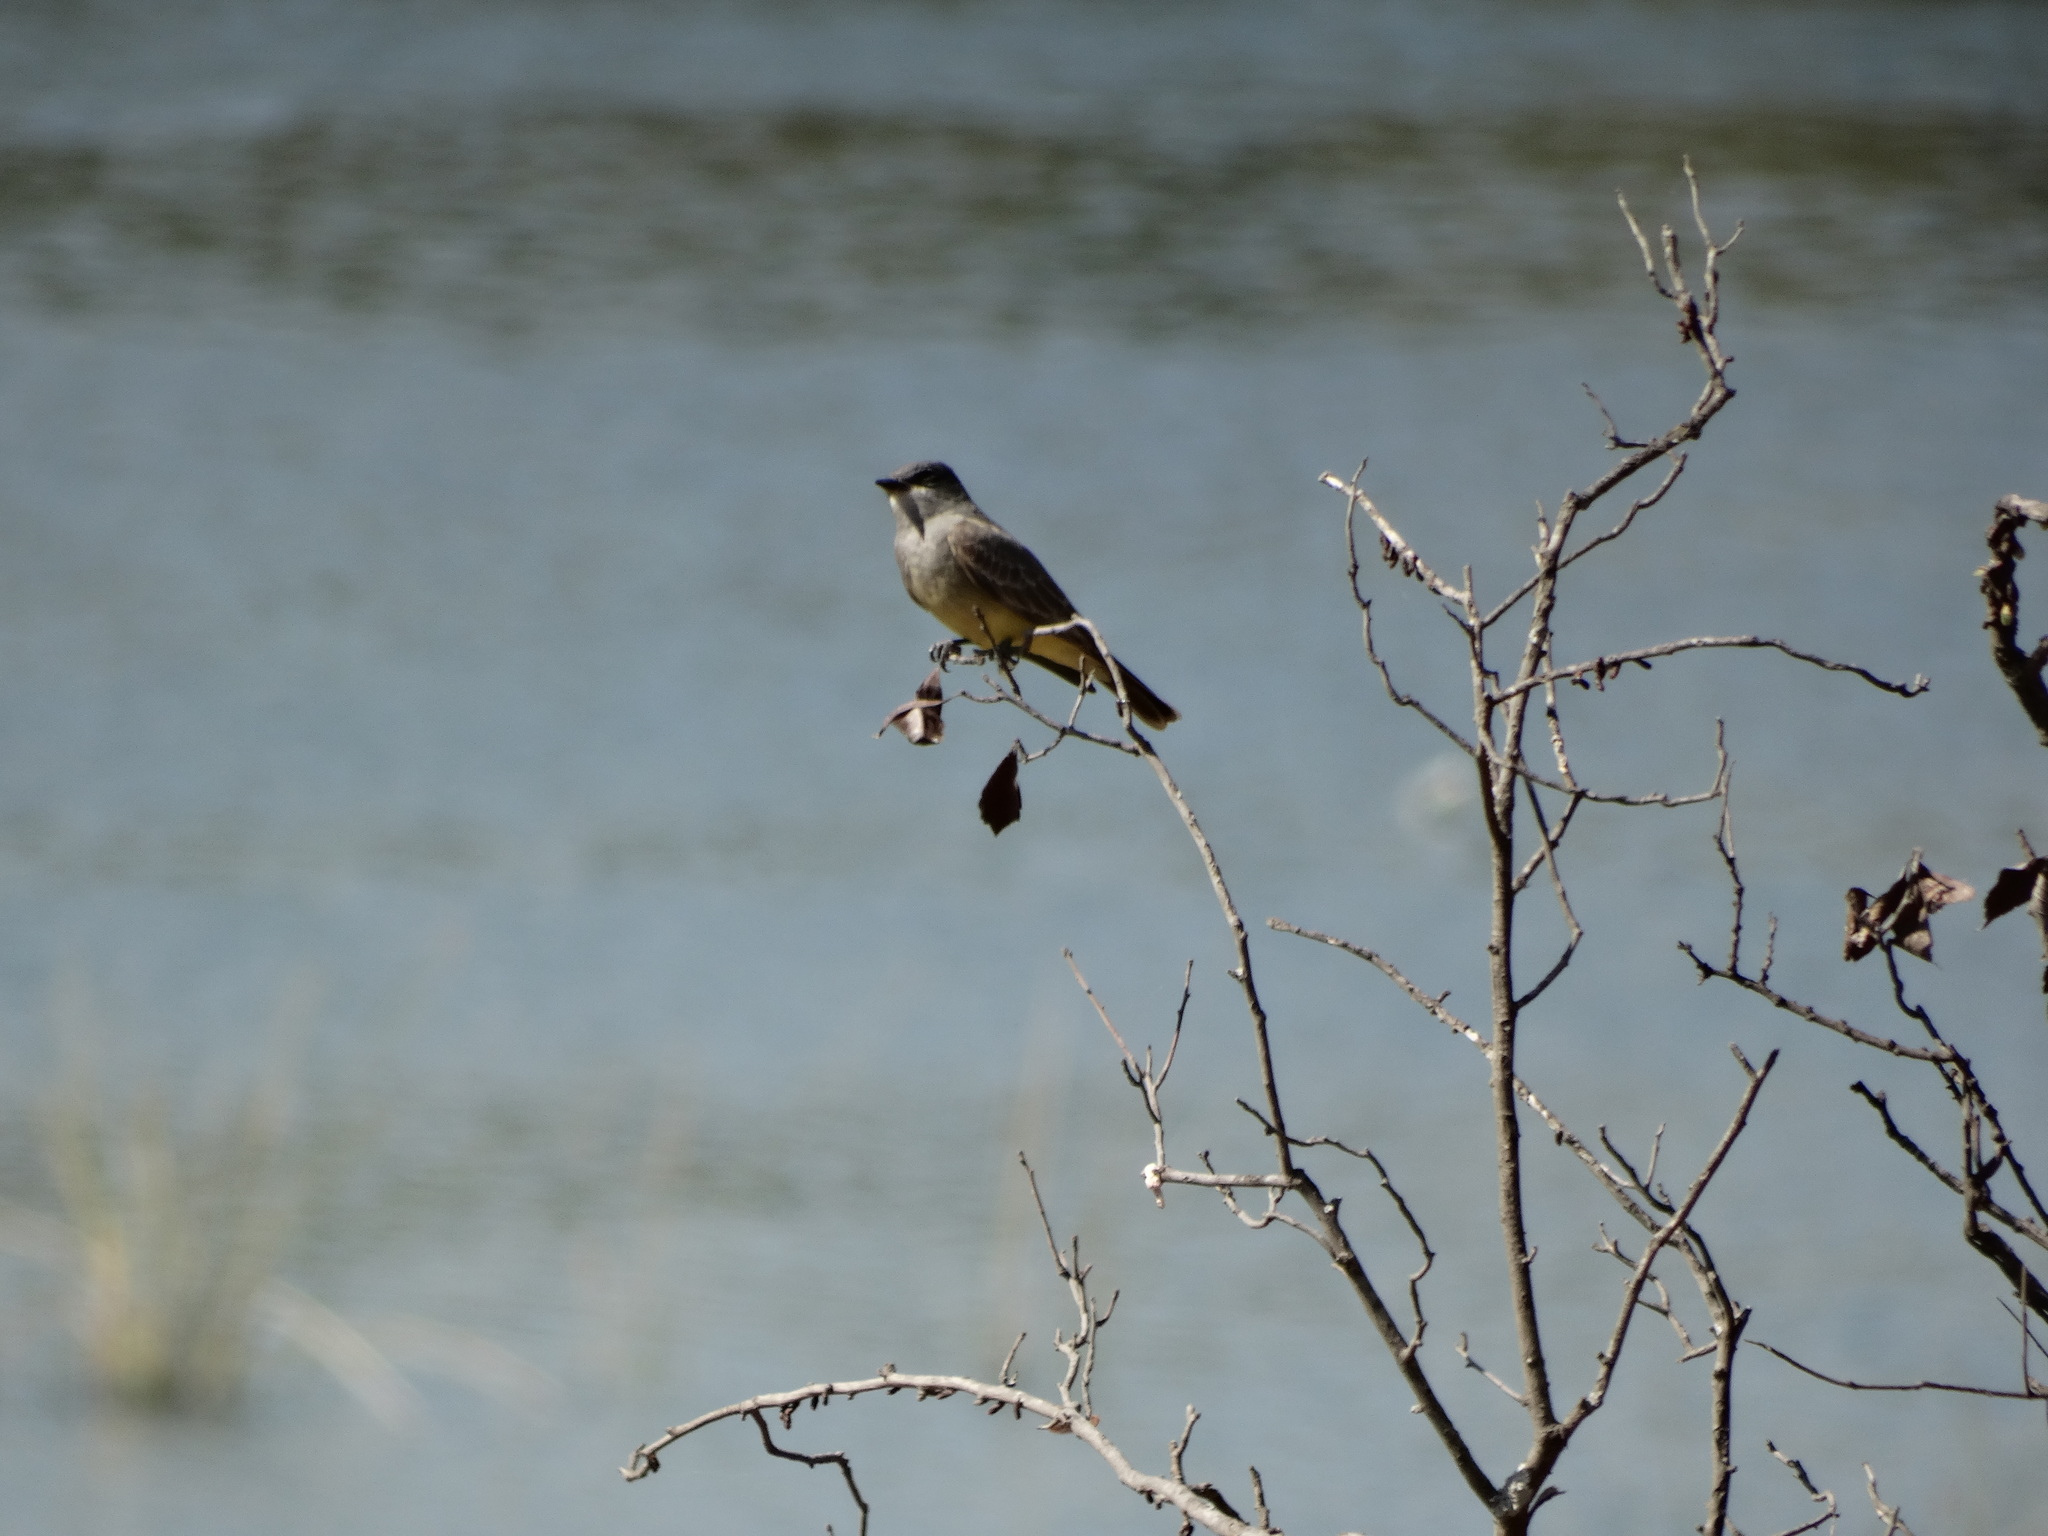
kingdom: Animalia
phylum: Chordata
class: Aves
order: Passeriformes
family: Tyrannidae
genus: Tyrannus
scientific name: Tyrannus vociferans
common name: Cassin's kingbird
